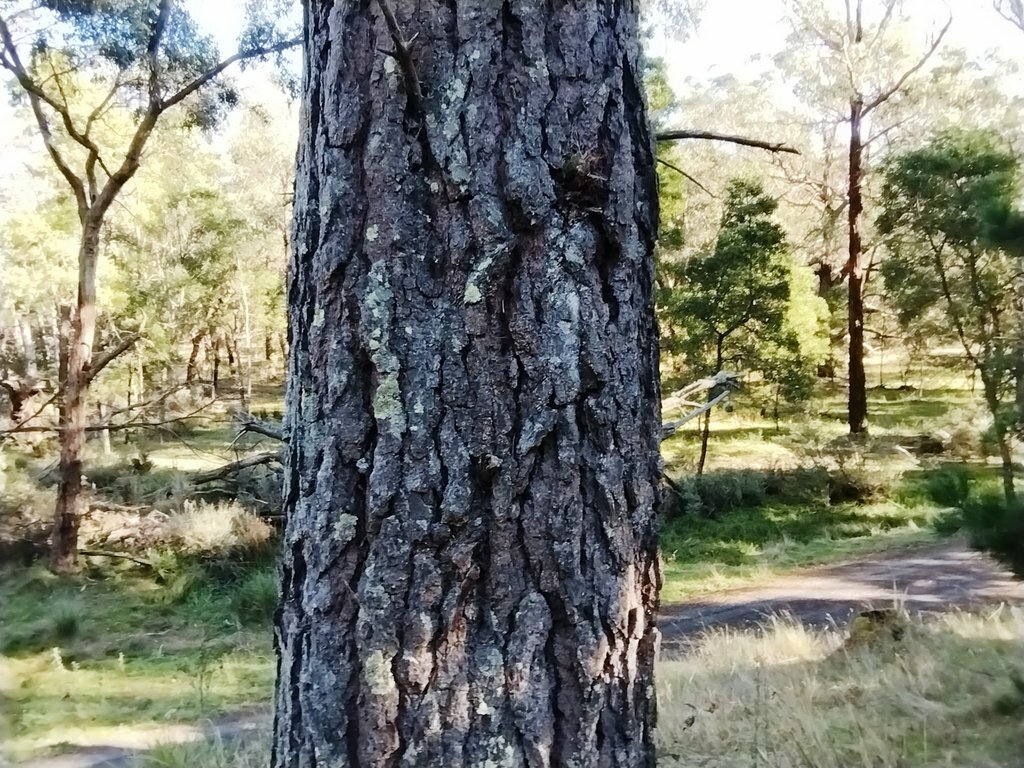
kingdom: Fungi
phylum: Basidiomycota
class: Agaricomycetes
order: Agaricales
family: Amanitaceae
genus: Amanita
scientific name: Amanita muscaria
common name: Fly agaric
